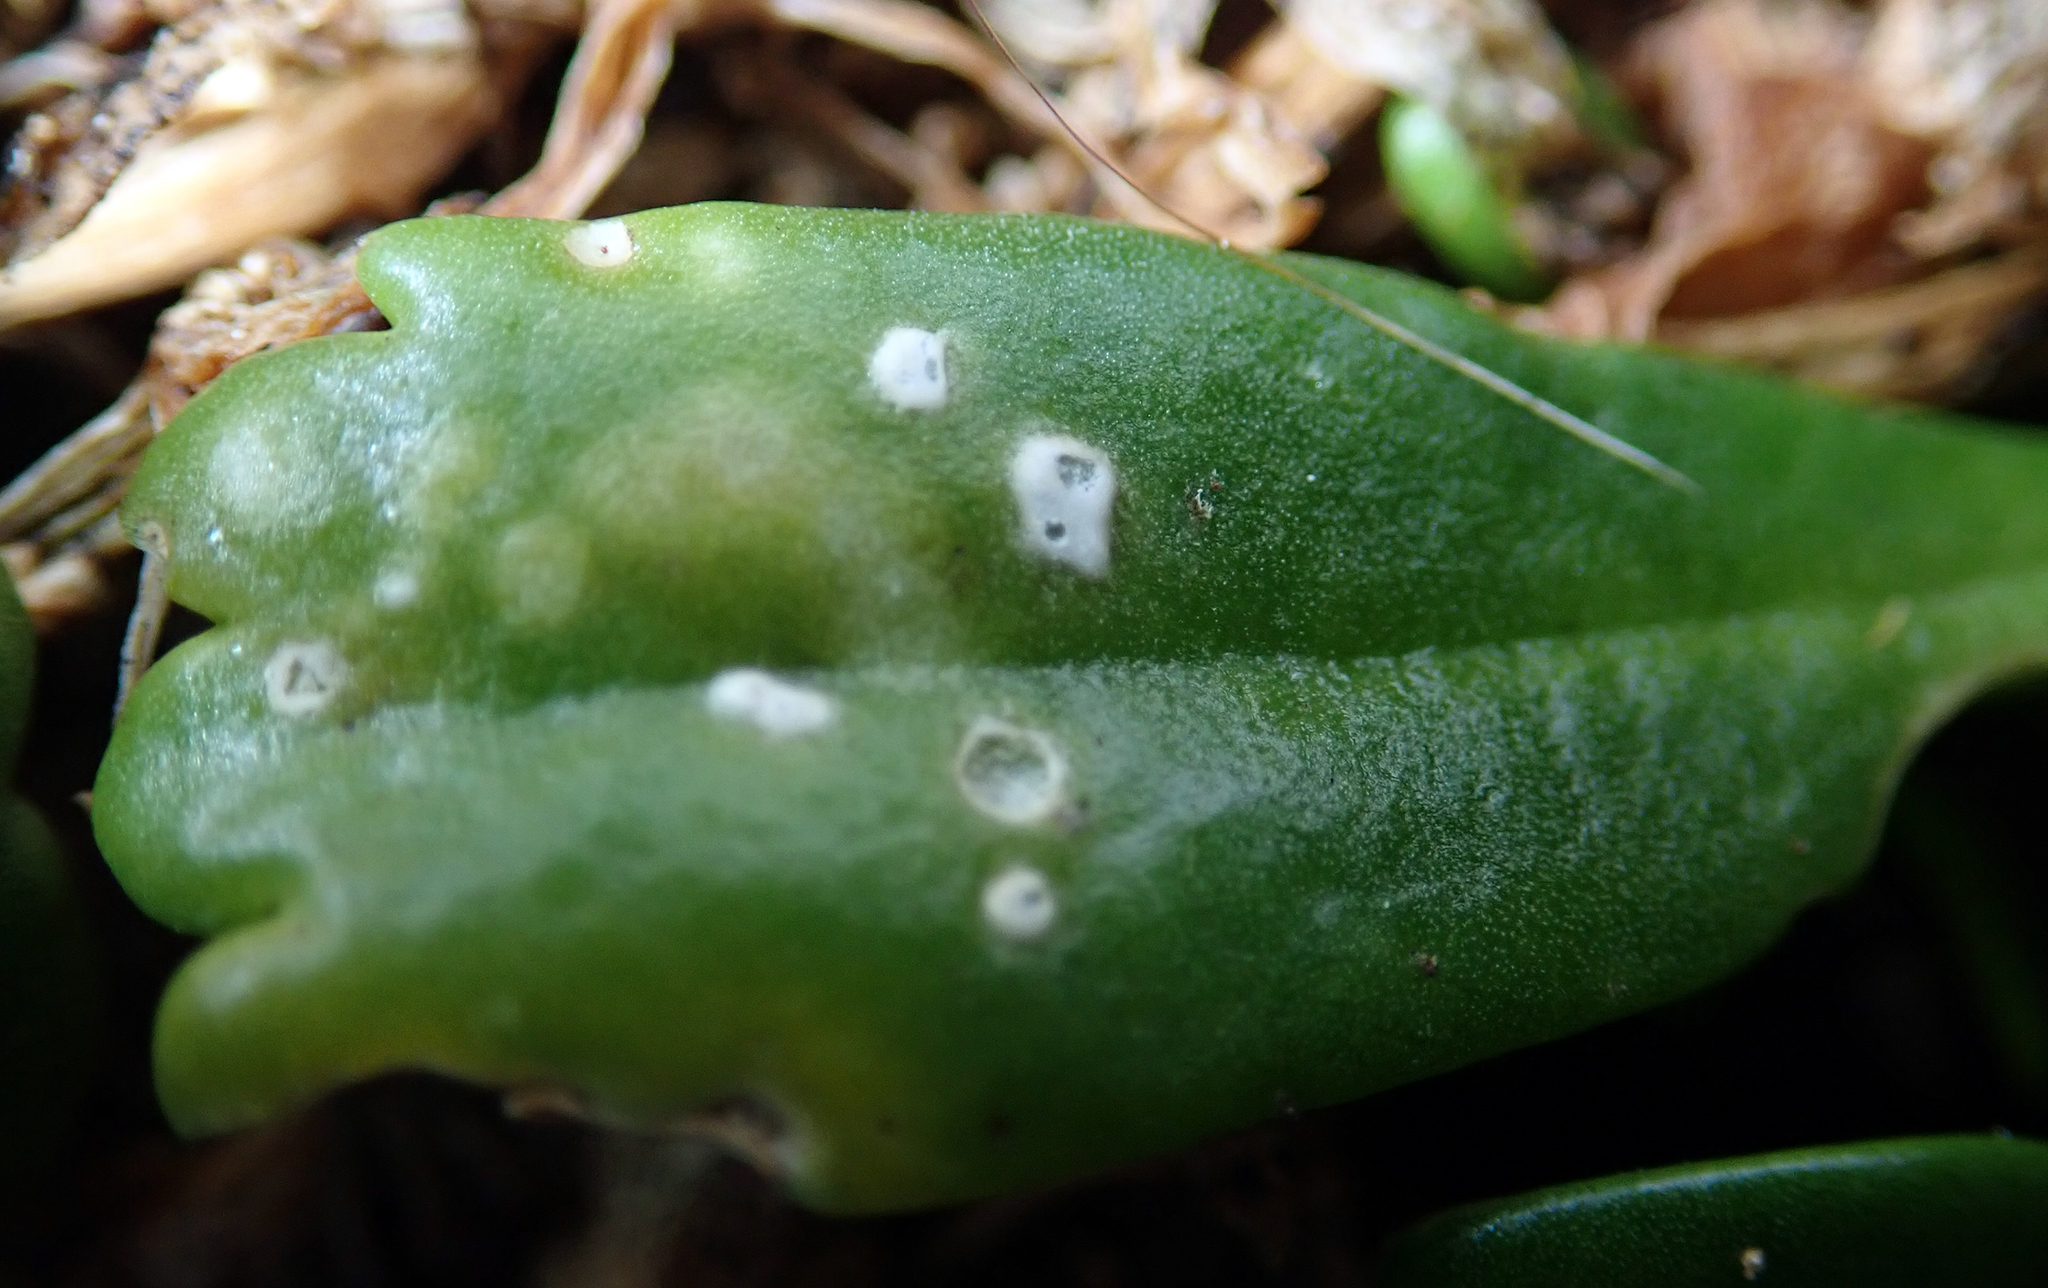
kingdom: Chromista
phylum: Oomycota
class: Peronosporea
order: Albuginales
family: Albuginaceae
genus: Albugo
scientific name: Albugo lepidii
